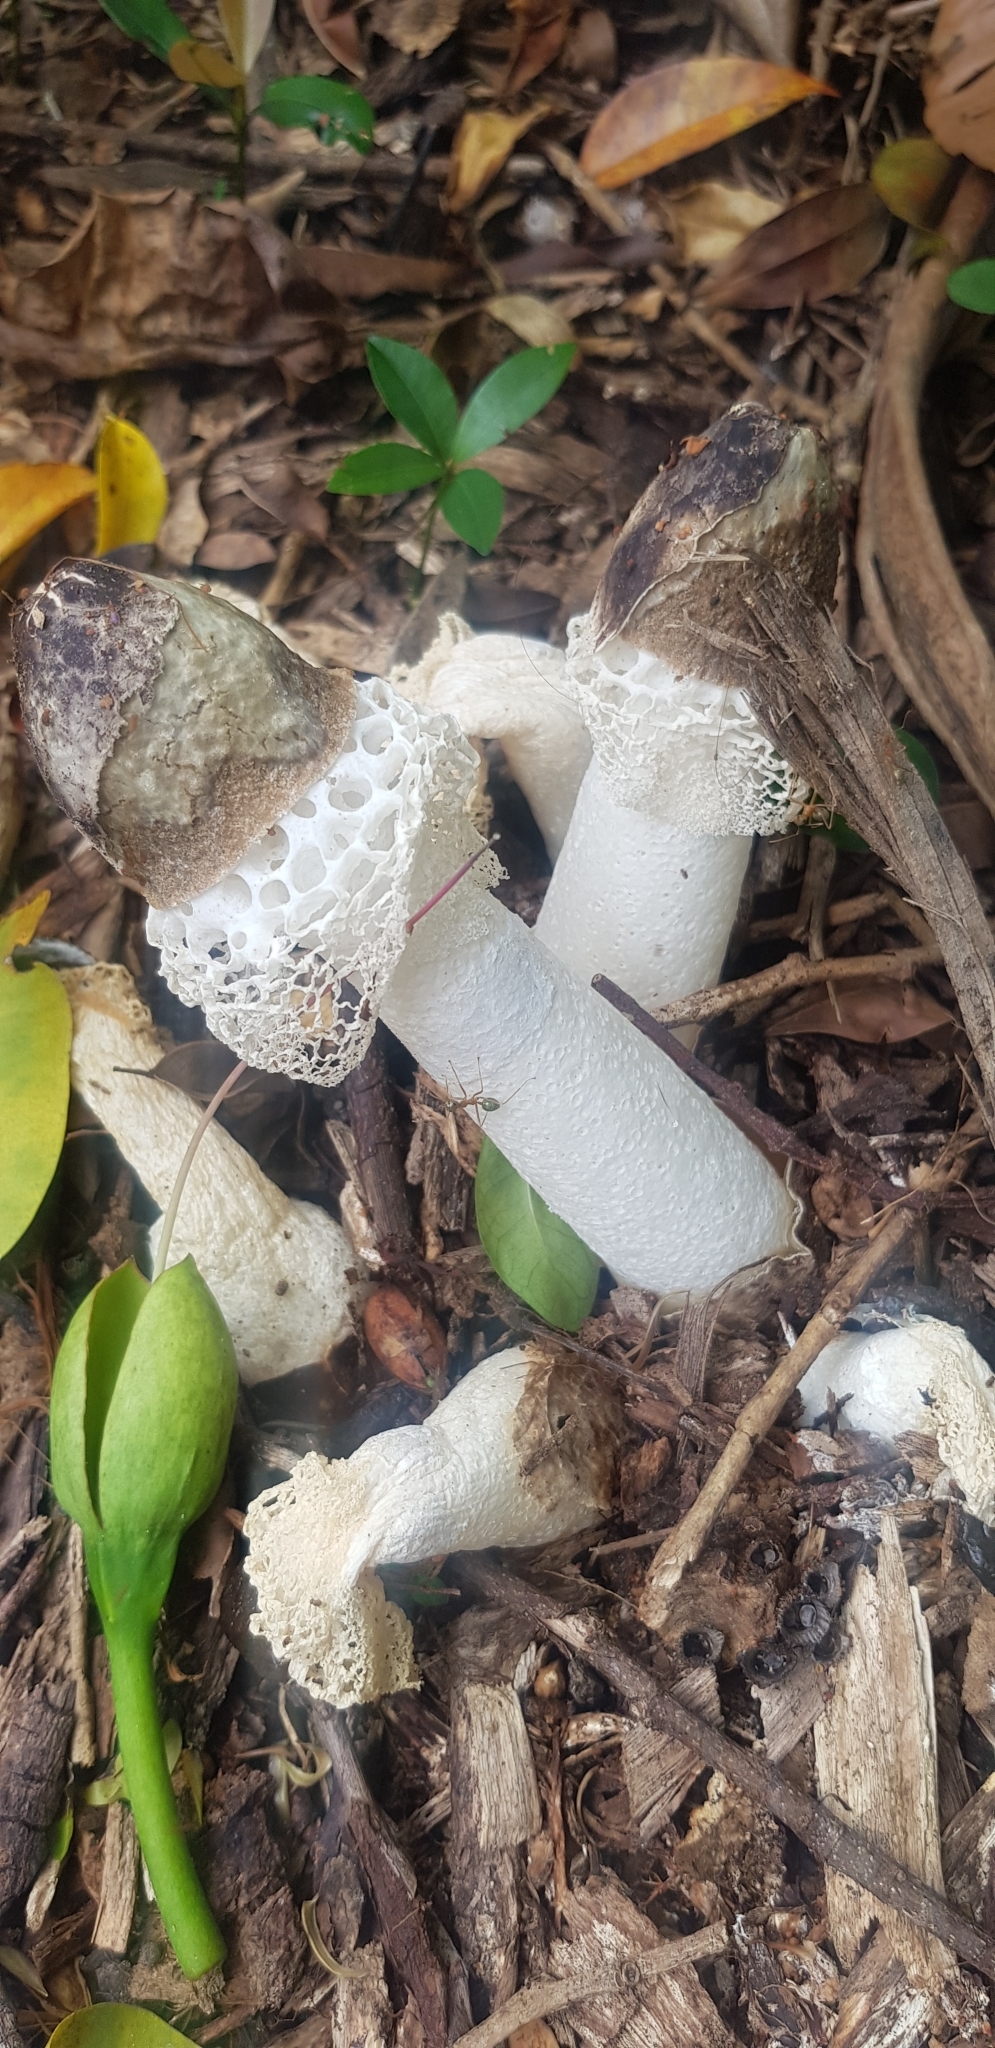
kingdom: Fungi
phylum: Basidiomycota
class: Agaricomycetes
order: Phallales
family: Phallaceae
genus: Phallus
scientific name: Phallus atrovolvatus
